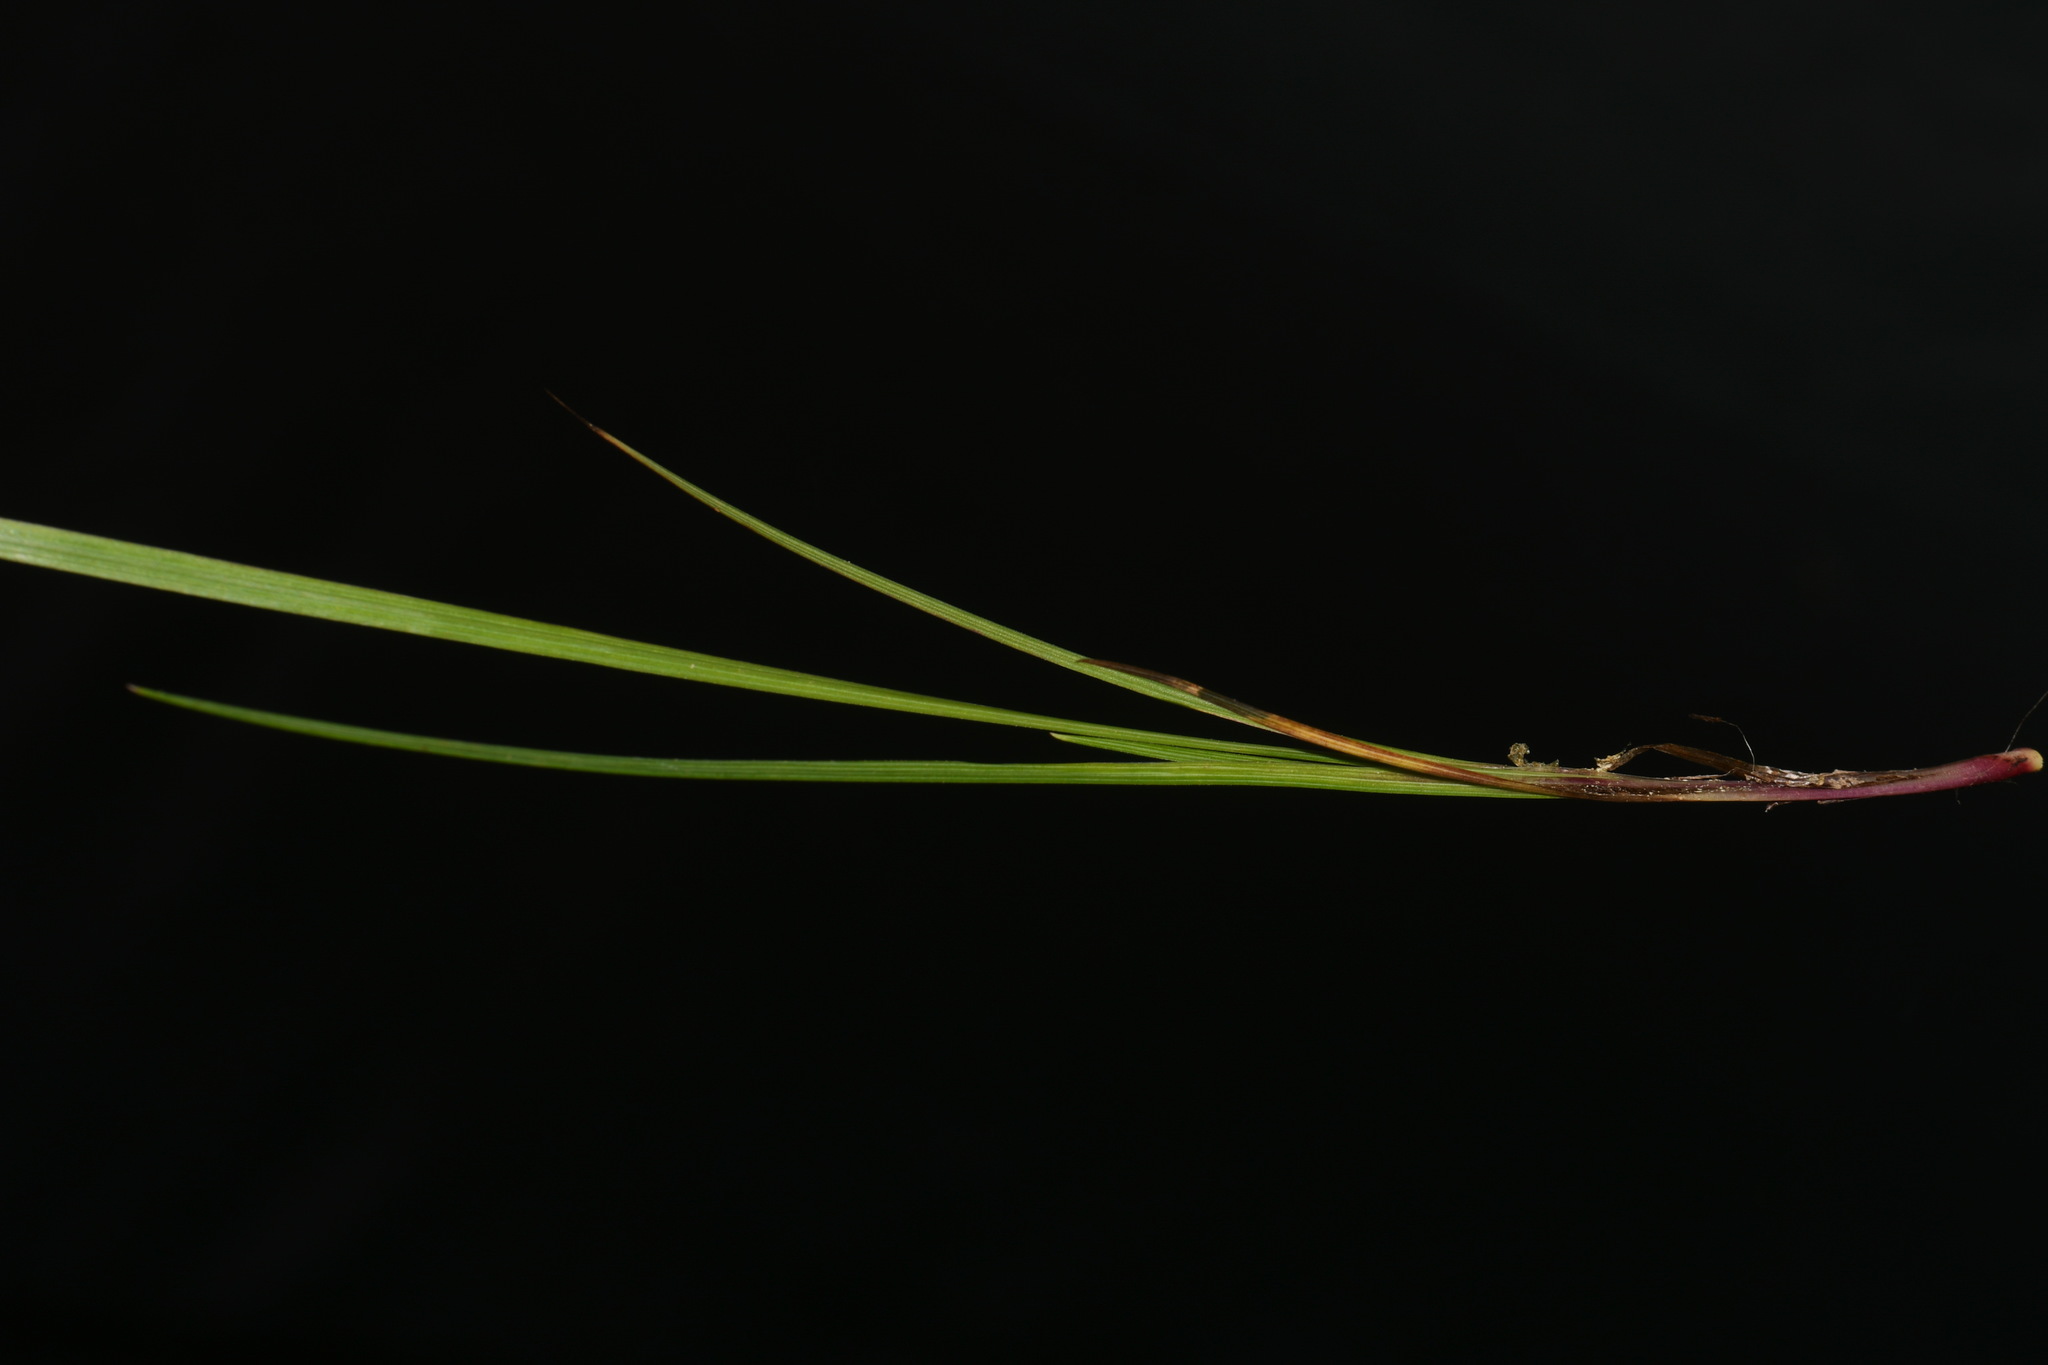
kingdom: Plantae
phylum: Tracheophyta
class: Liliopsida
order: Asparagales
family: Iridaceae
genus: Sisyrinchium
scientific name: Sisyrinchium langloisii
